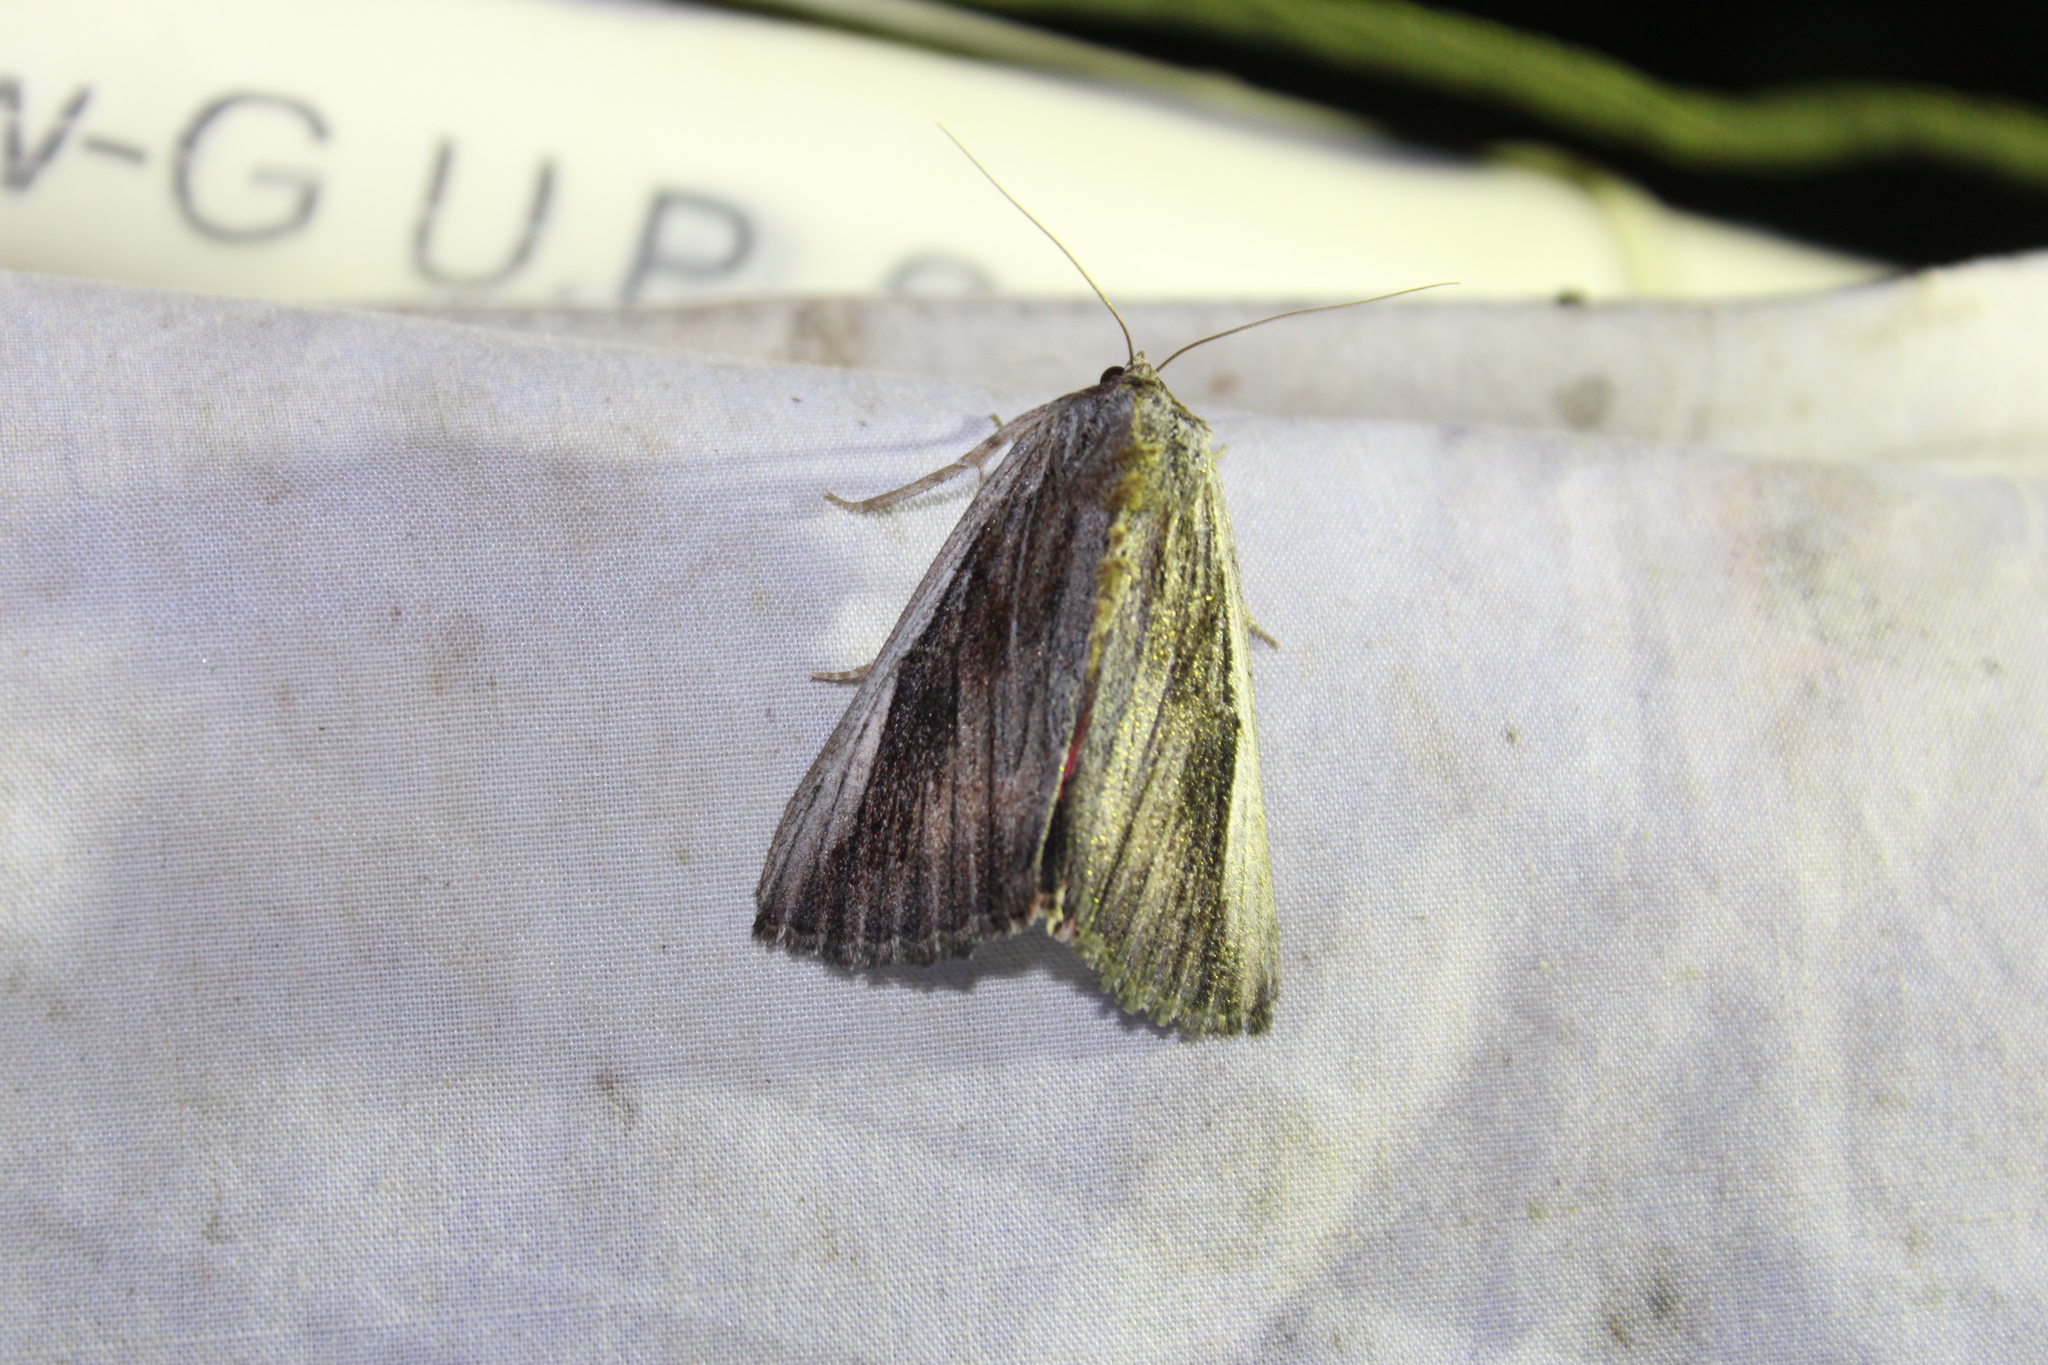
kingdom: Animalia
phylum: Arthropoda
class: Insecta
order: Lepidoptera
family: Erebidae
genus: Catocala
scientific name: Catocala herodias
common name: Pine barrens underwing
